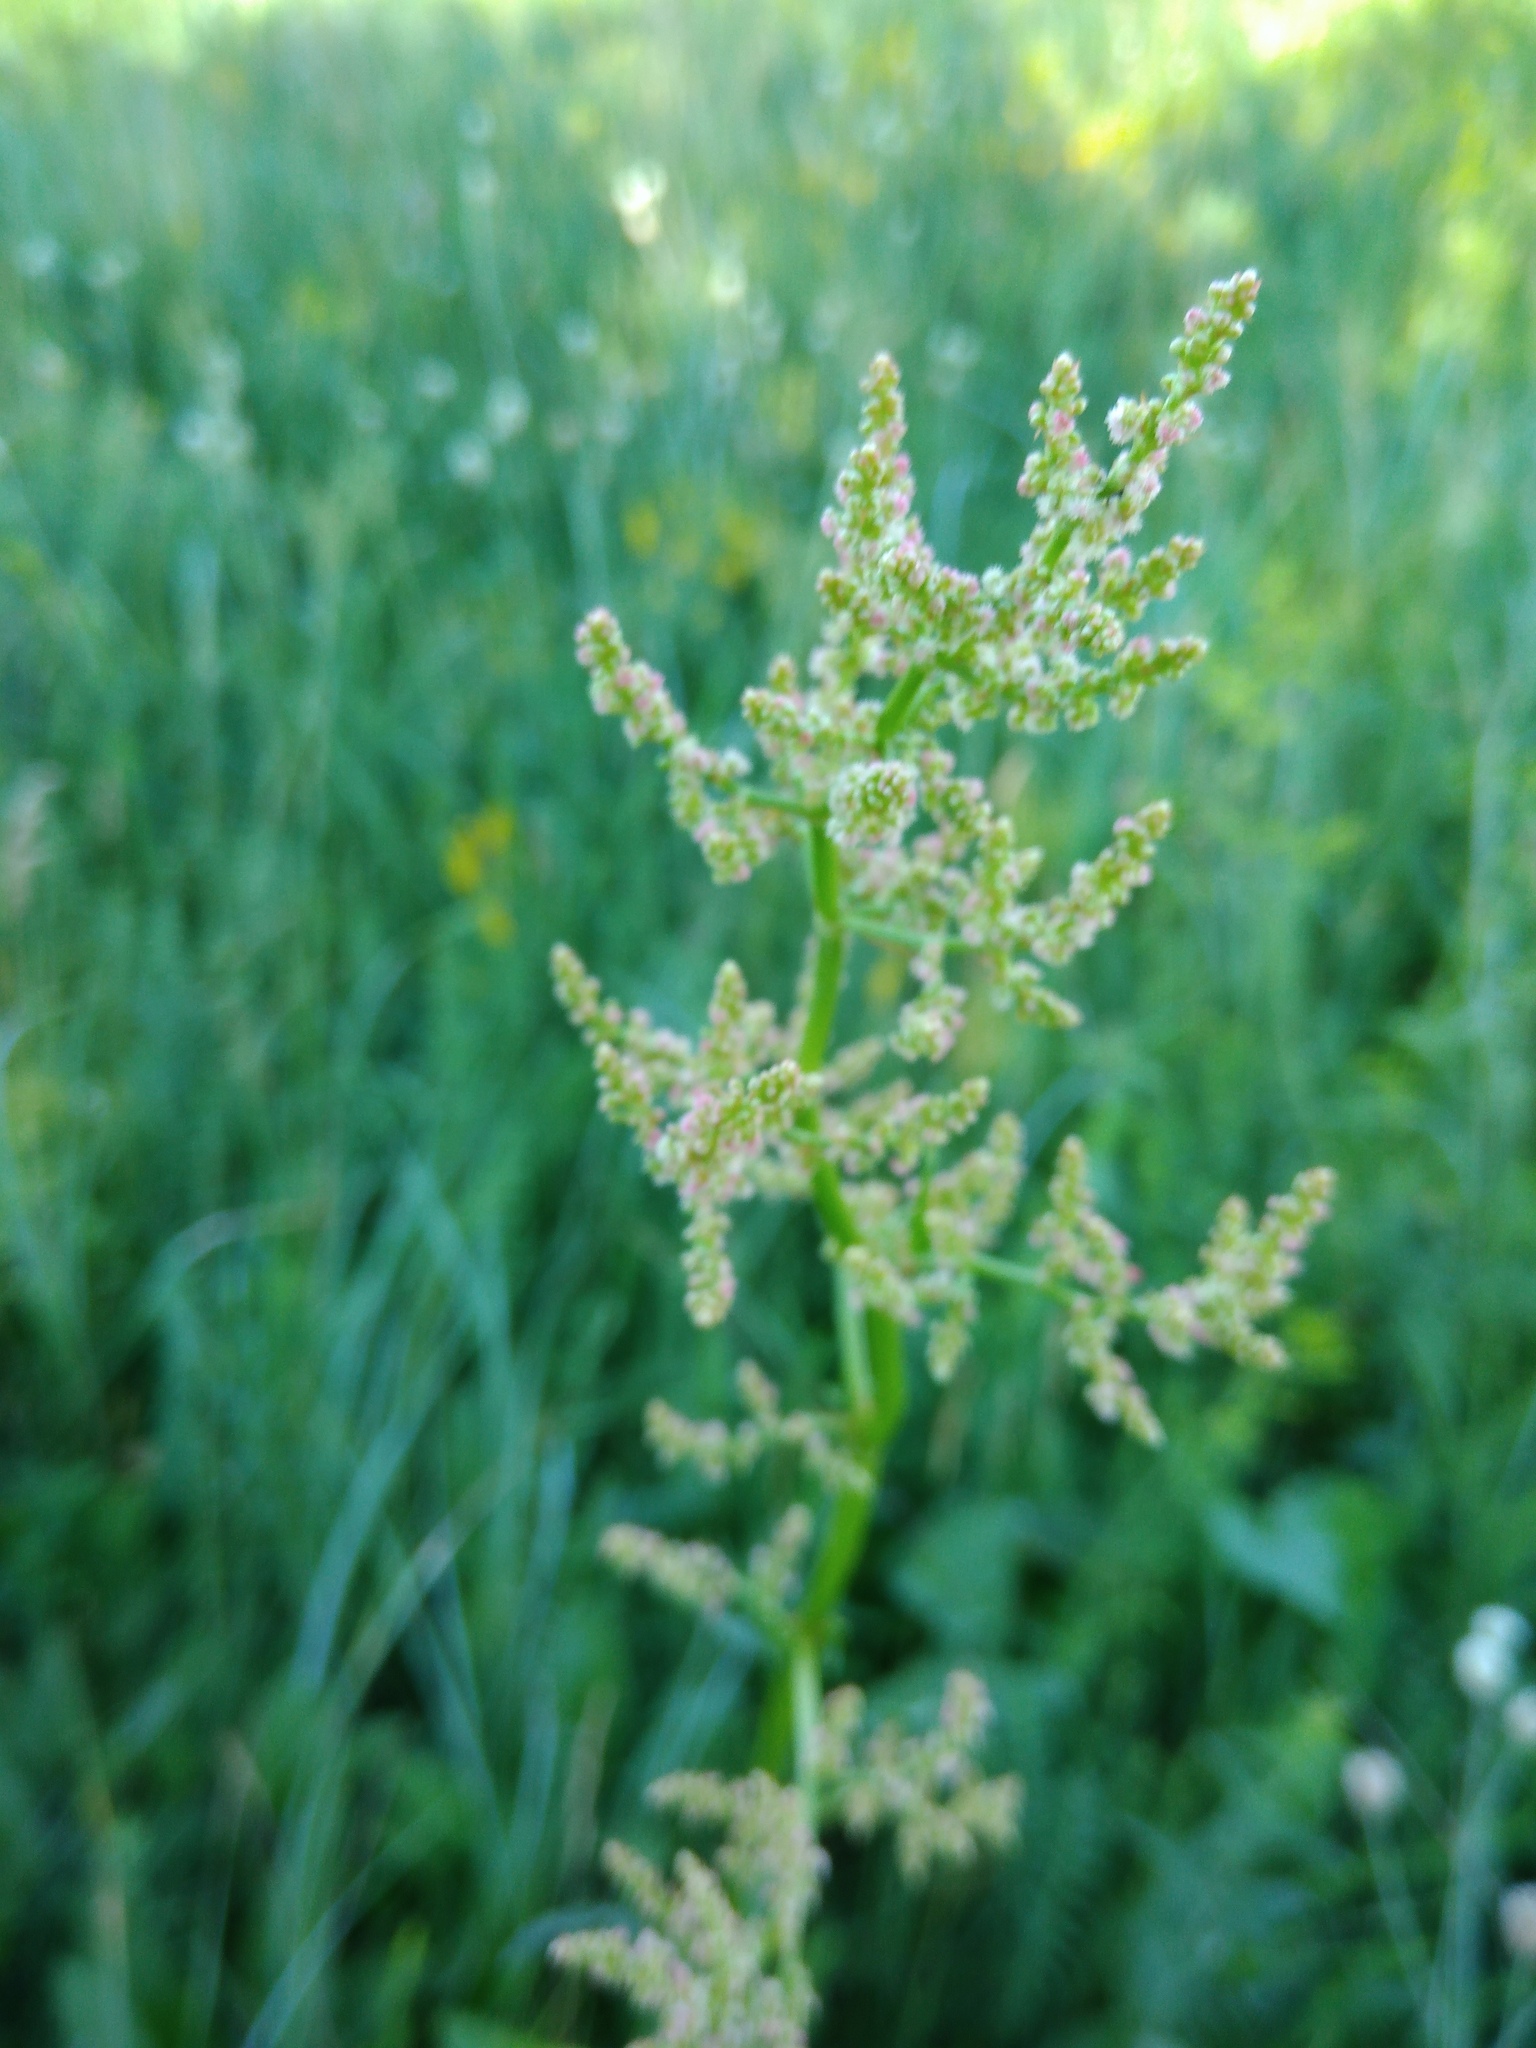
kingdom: Plantae
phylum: Tracheophyta
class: Magnoliopsida
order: Caryophyllales
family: Polygonaceae
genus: Rumex
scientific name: Rumex thyrsiflorus
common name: Garden sorrel
